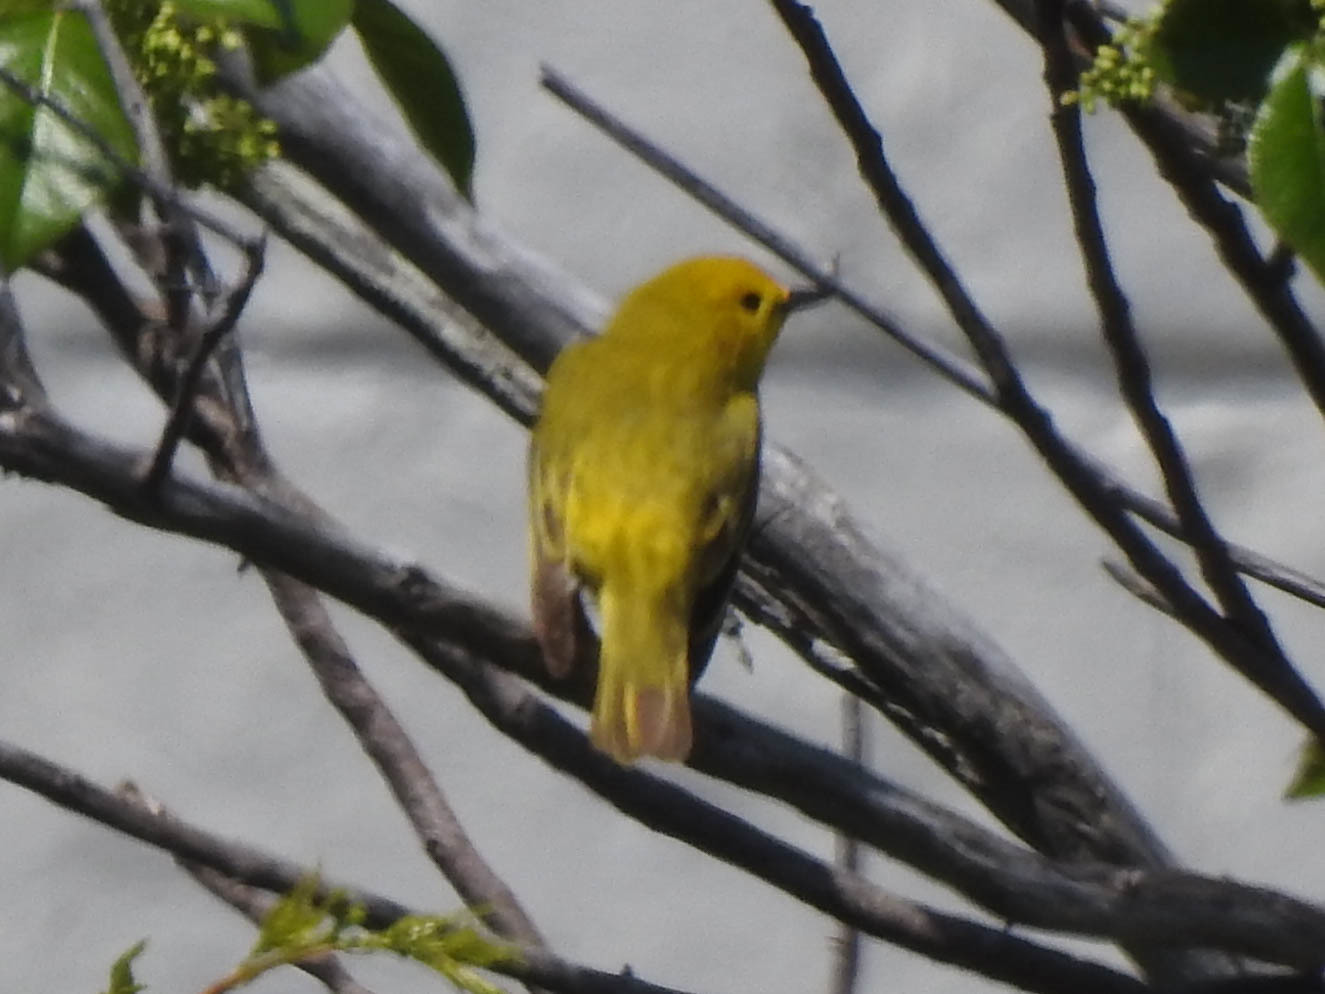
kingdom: Animalia
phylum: Chordata
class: Aves
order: Passeriformes
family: Parulidae
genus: Setophaga
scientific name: Setophaga petechia
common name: Yellow warbler
